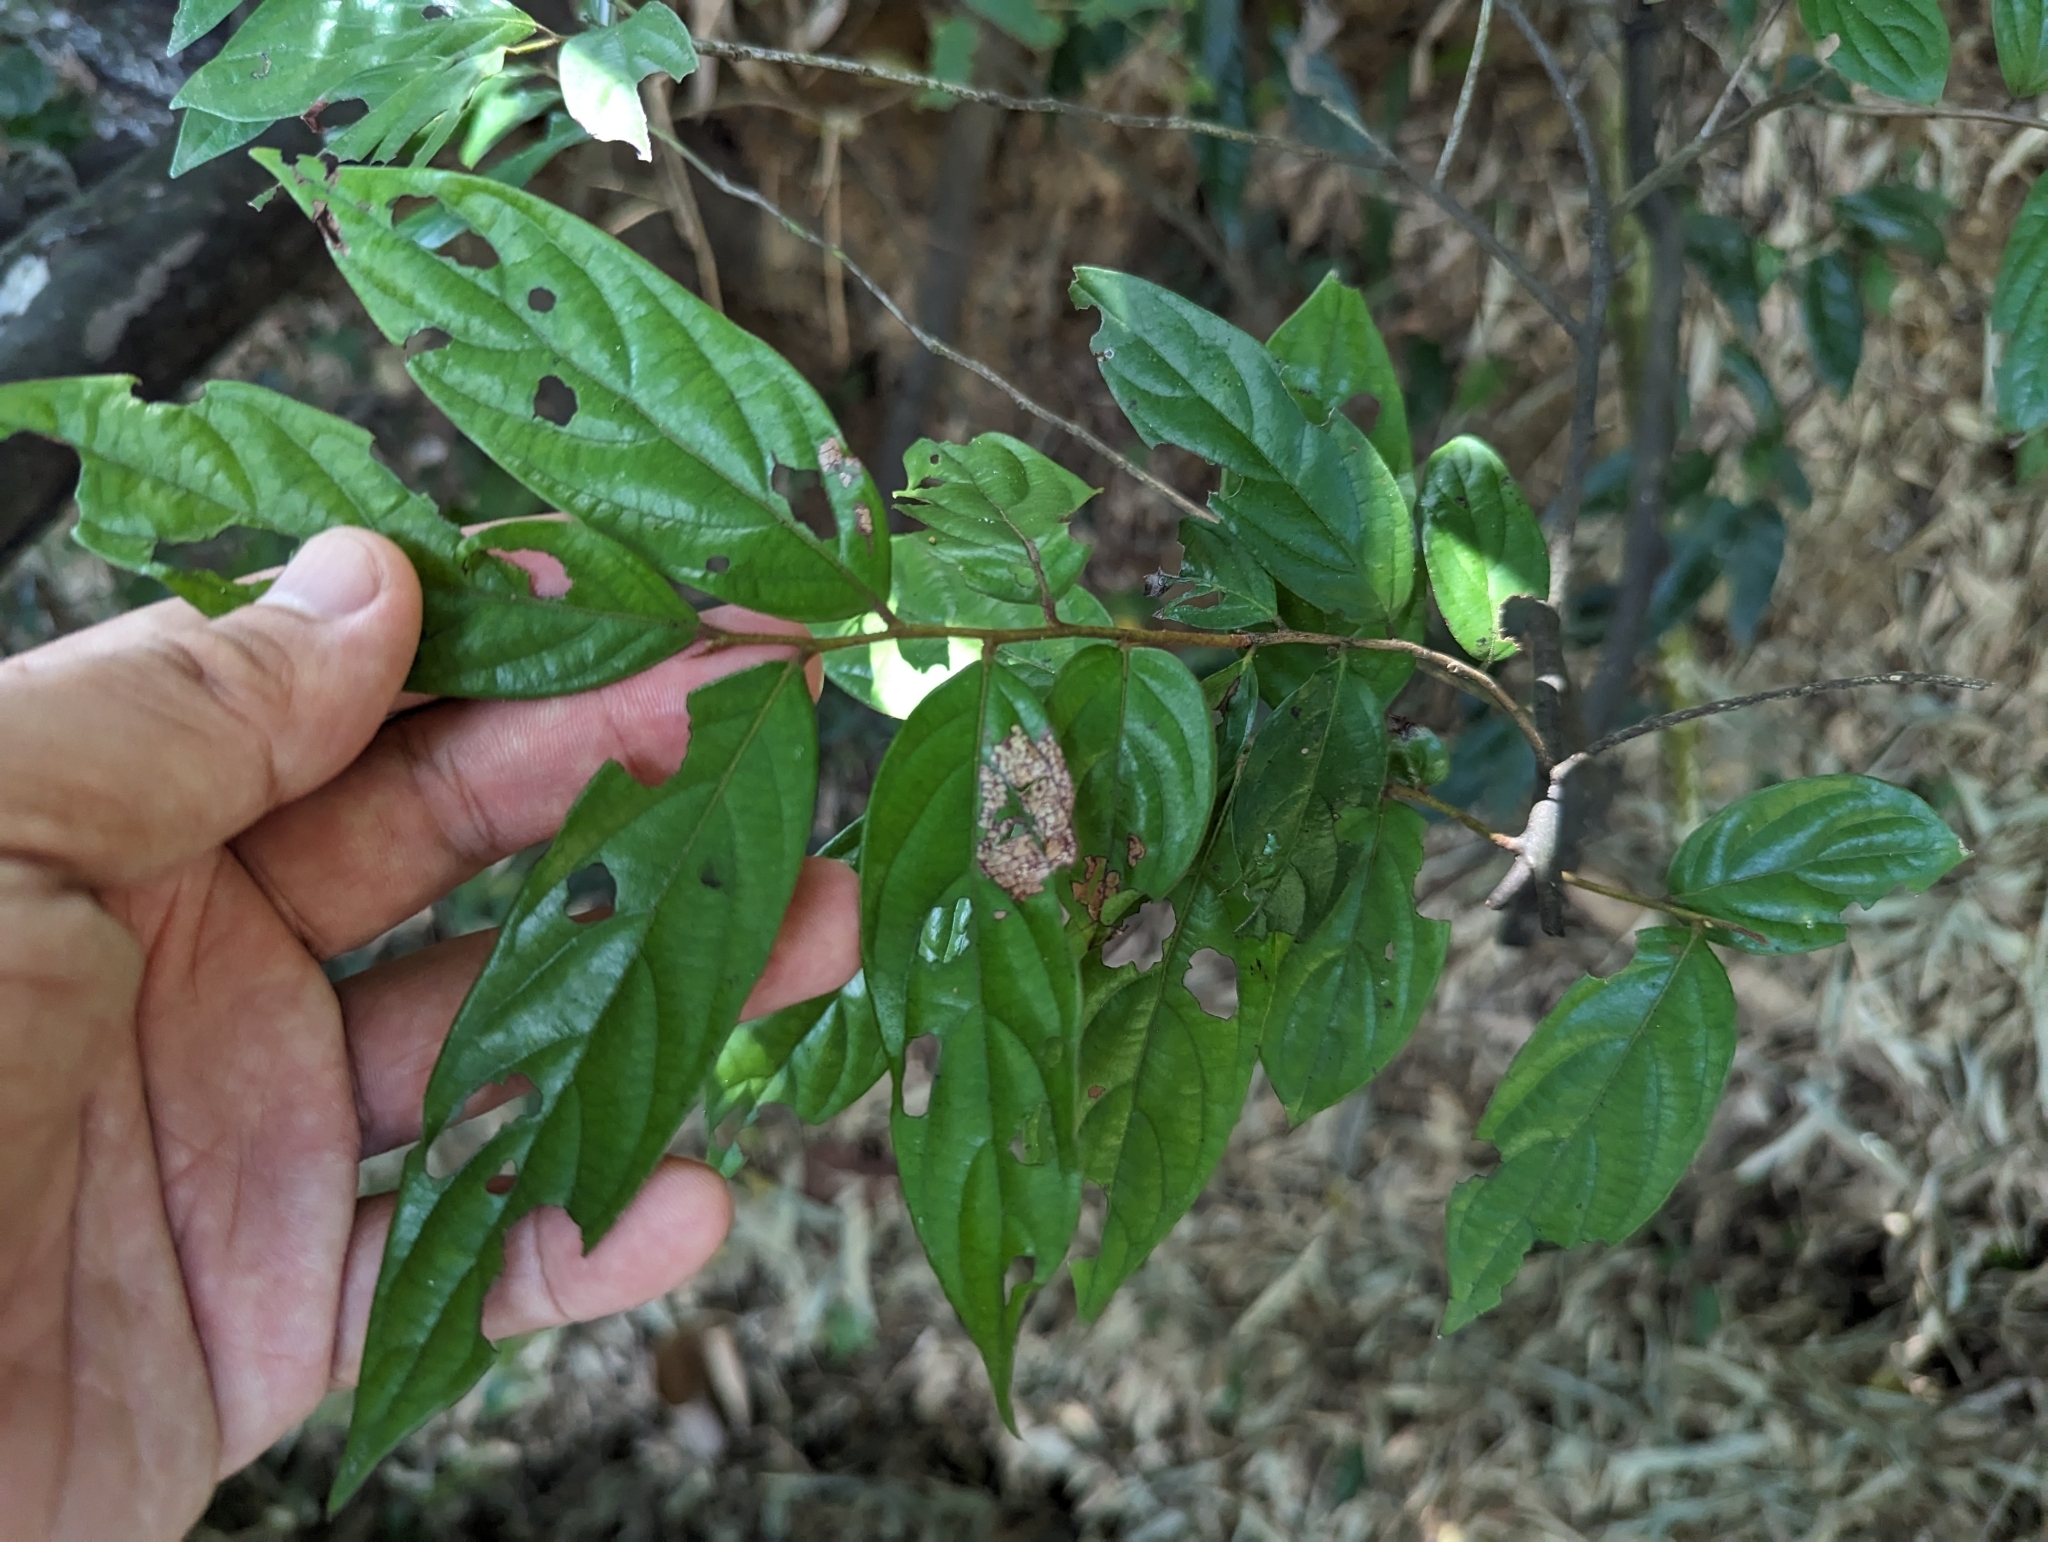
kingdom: Plantae
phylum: Tracheophyta
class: Magnoliopsida
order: Ericales
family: Ebenaceae
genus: Diospyros
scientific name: Diospyros eriantha
